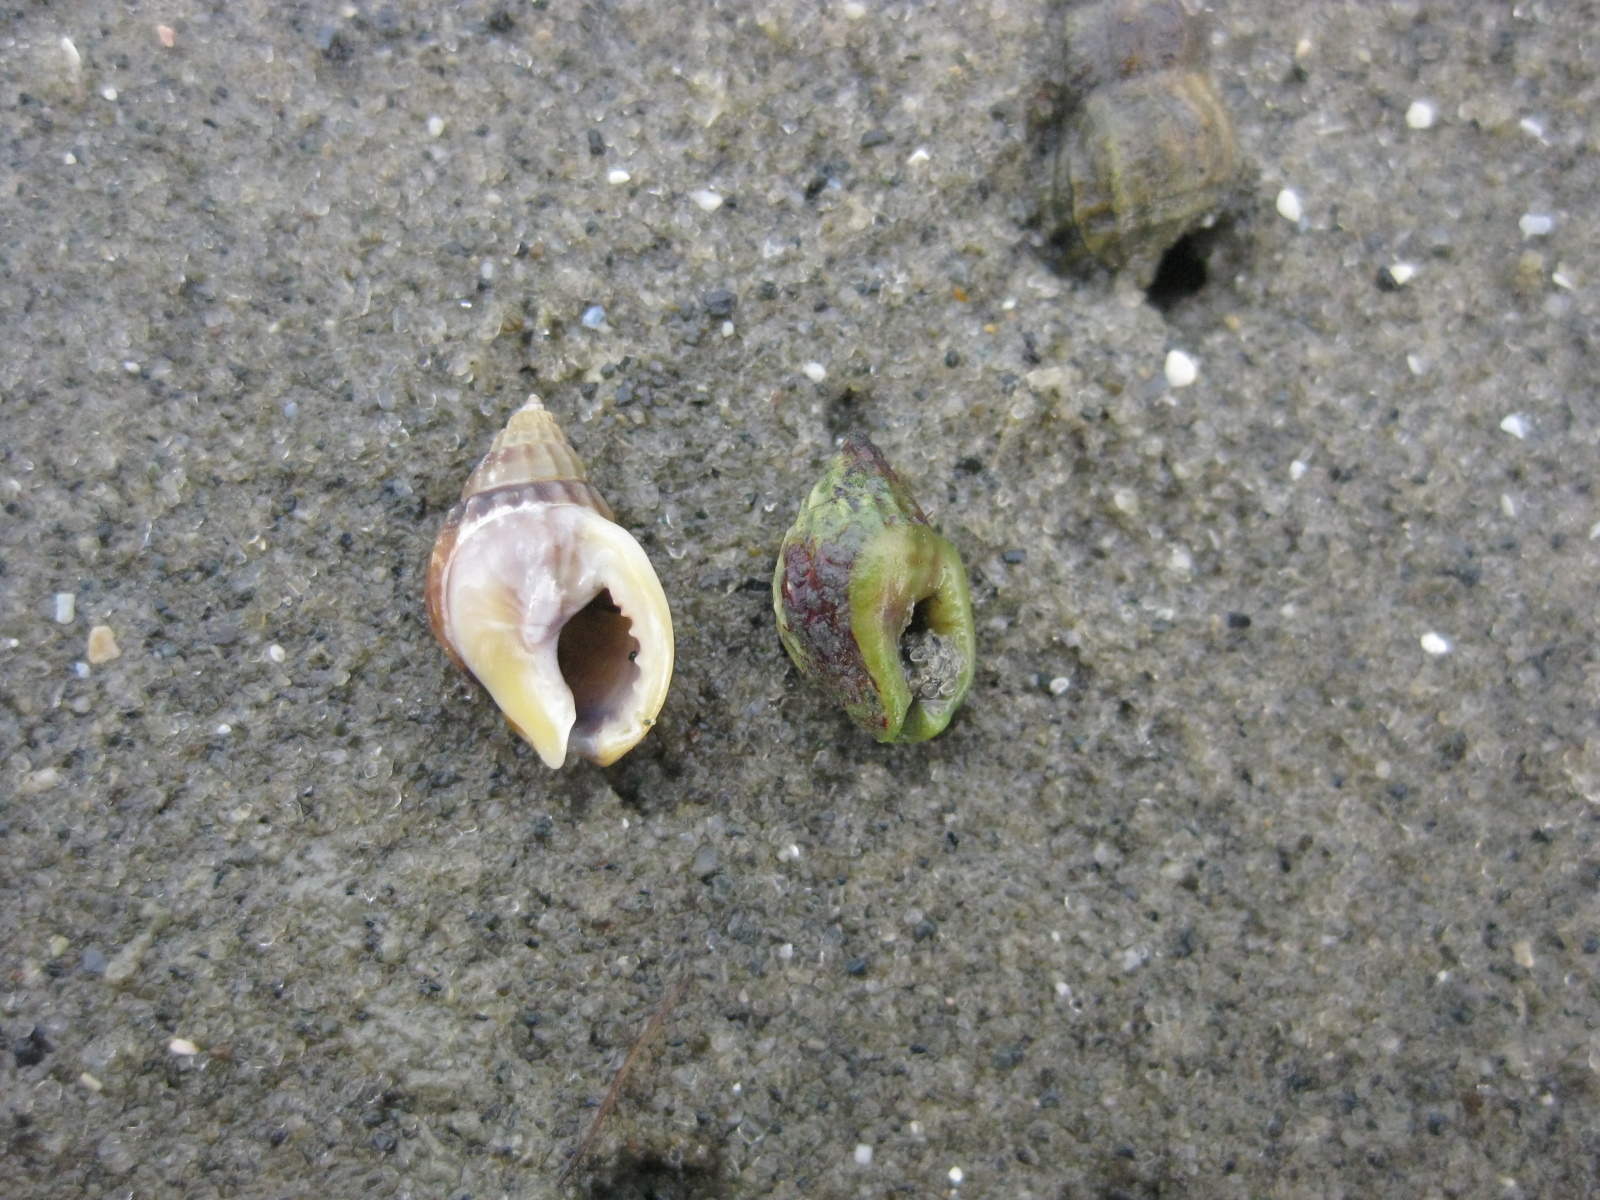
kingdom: Animalia
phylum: Mollusca
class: Gastropoda
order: Neogastropoda
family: Nassariidae
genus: Tritia
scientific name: Tritia burchardi
